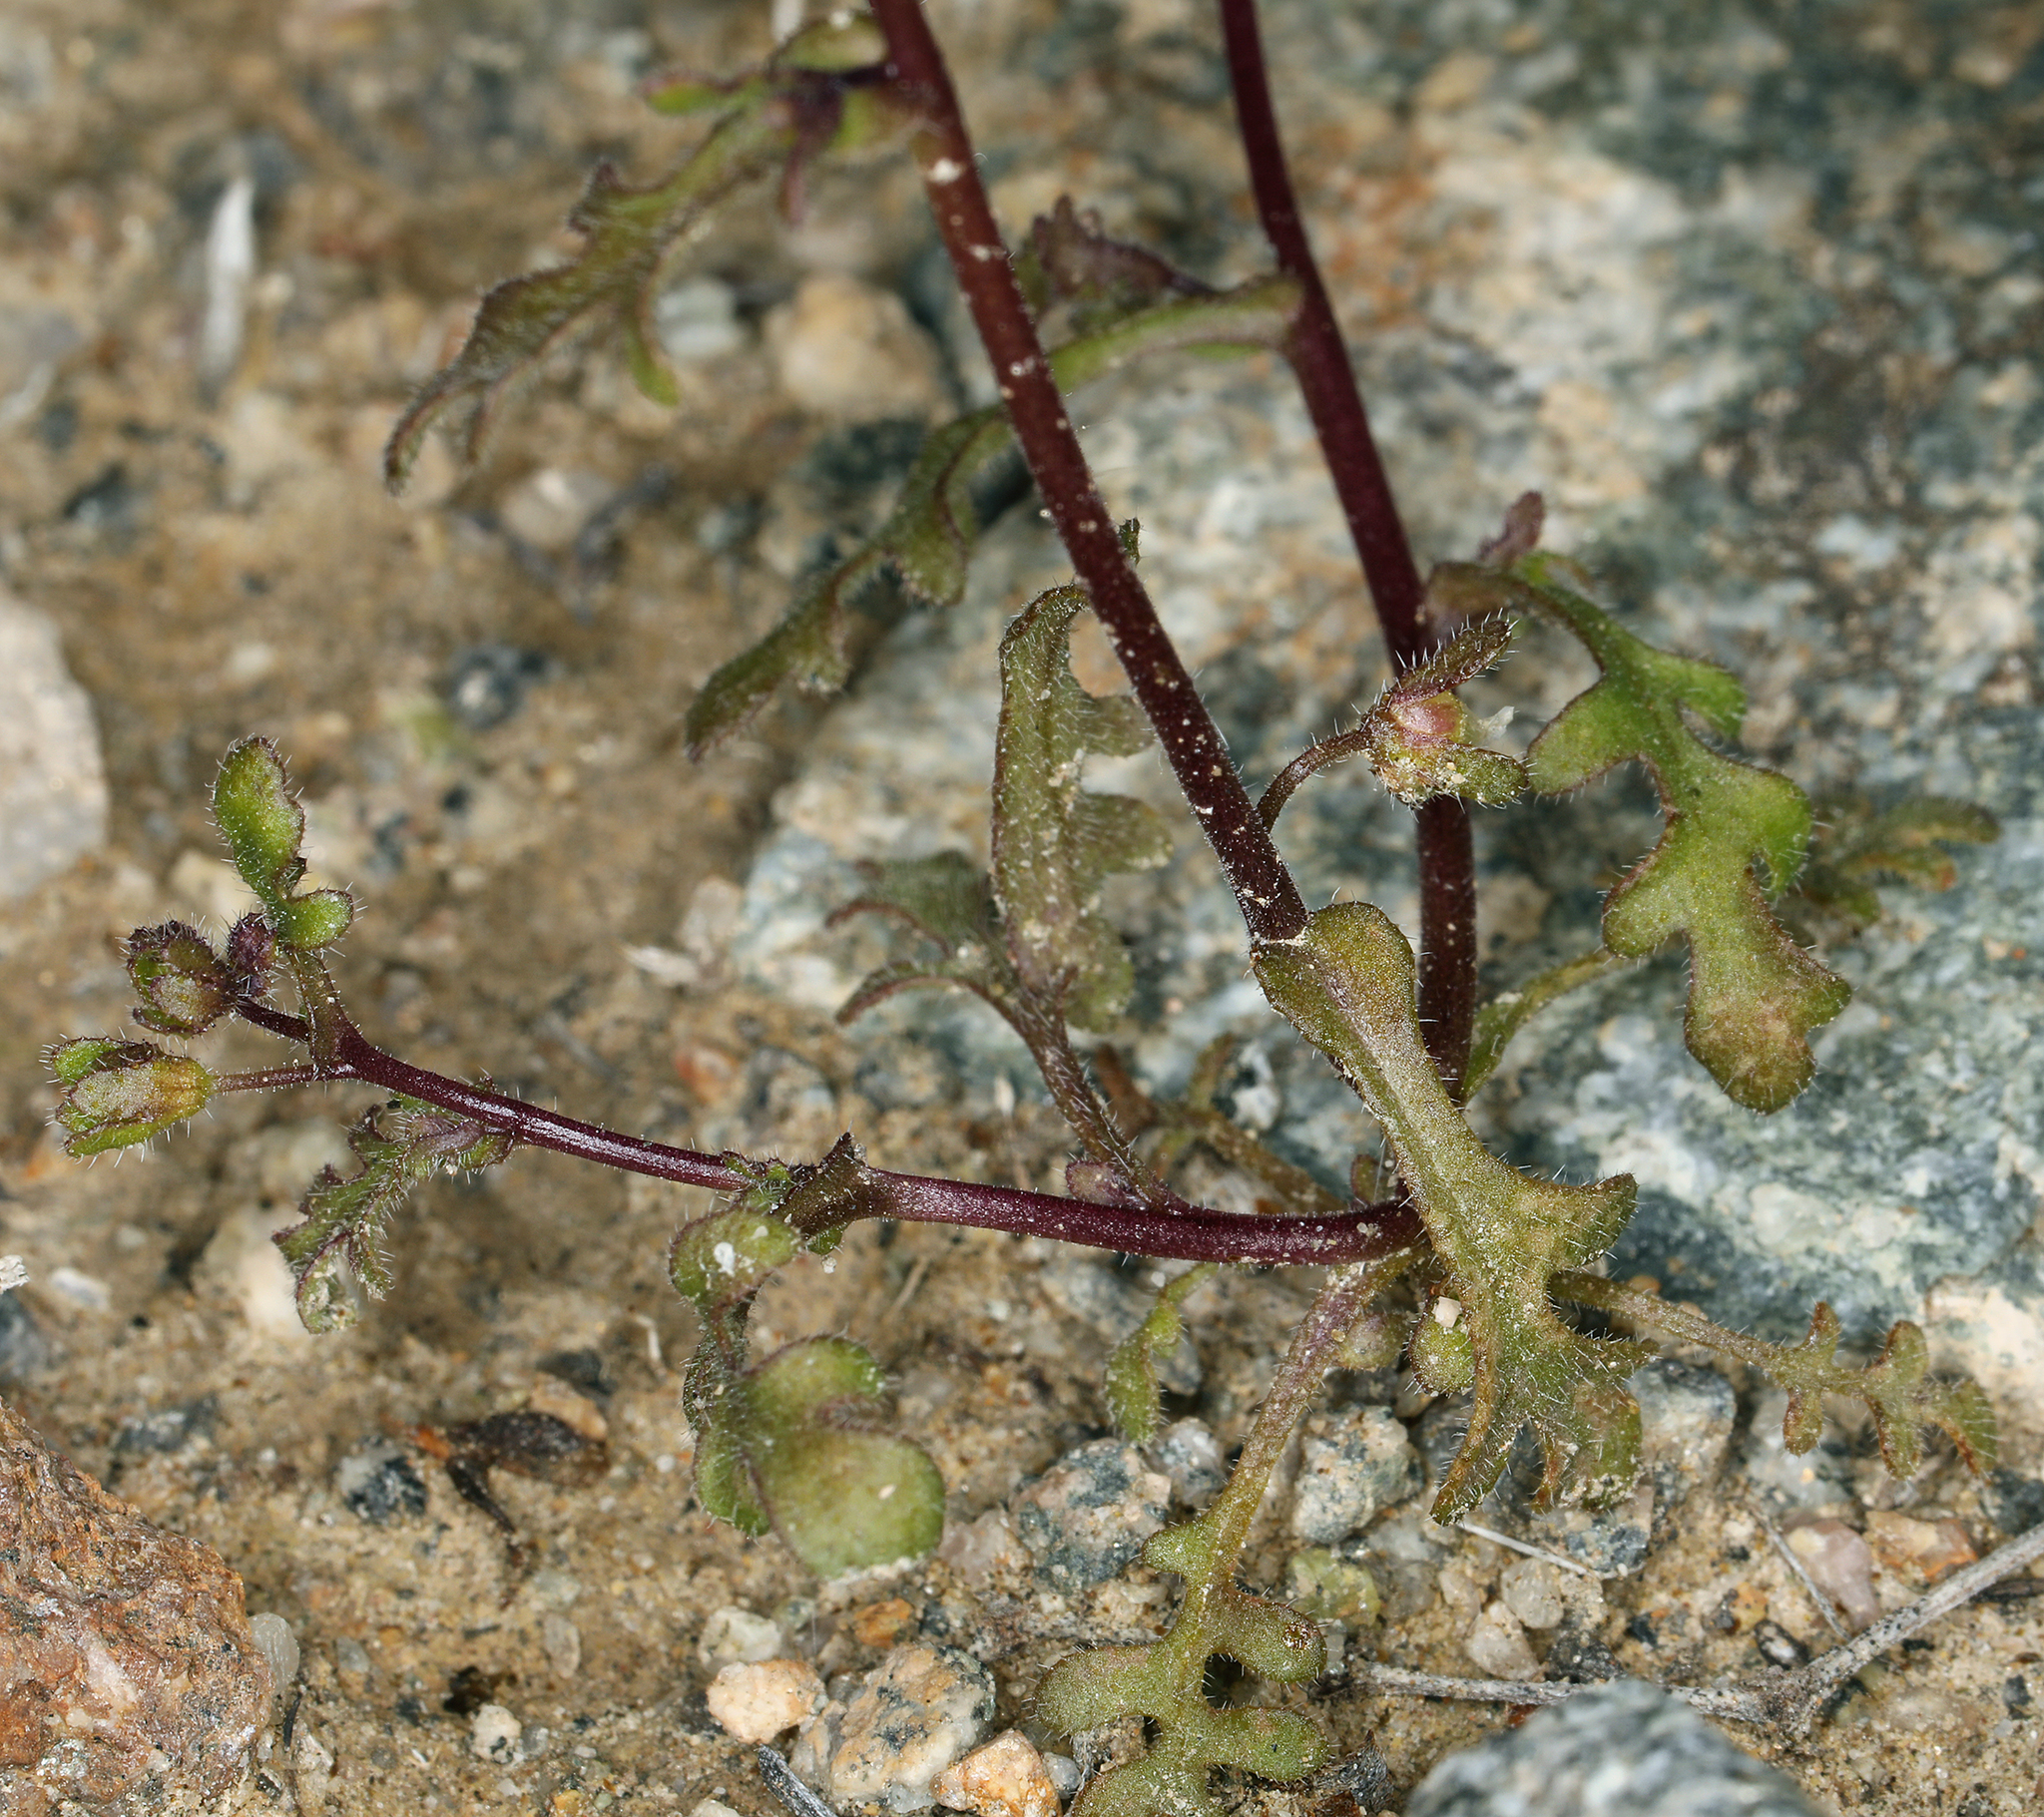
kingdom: Plantae
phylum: Tracheophyta
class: Magnoliopsida
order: Boraginales
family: Hydrophyllaceae
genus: Eucrypta
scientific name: Eucrypta micrantha
